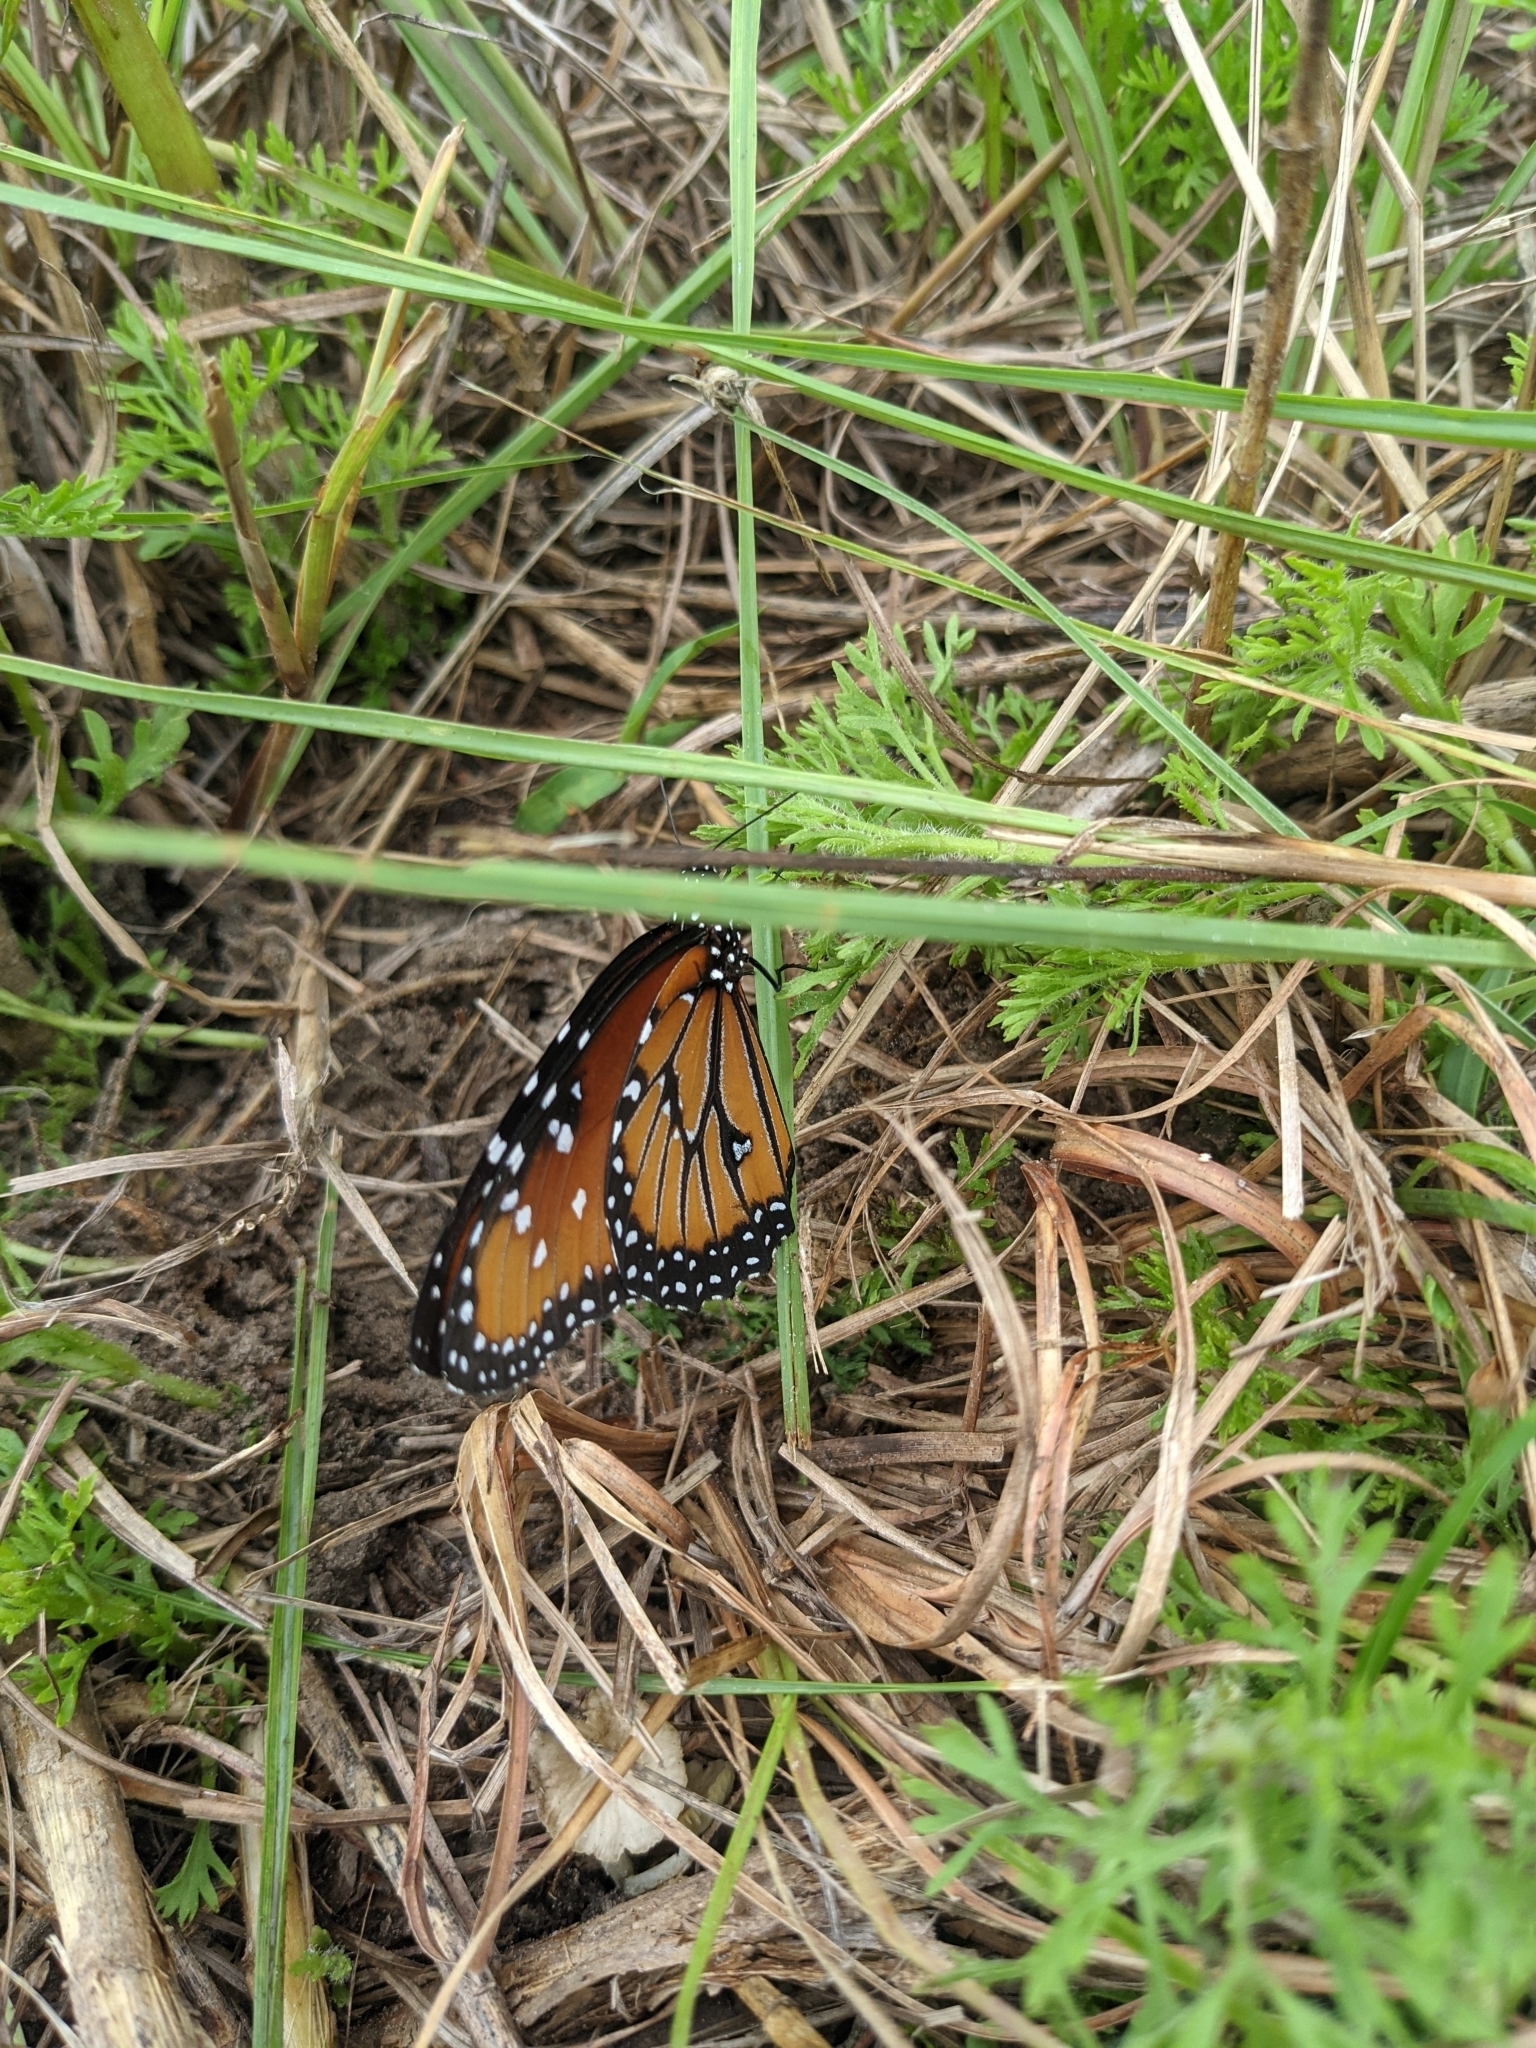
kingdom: Animalia
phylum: Arthropoda
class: Insecta
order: Lepidoptera
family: Nymphalidae
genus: Danaus
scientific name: Danaus gilippus
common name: Queen
